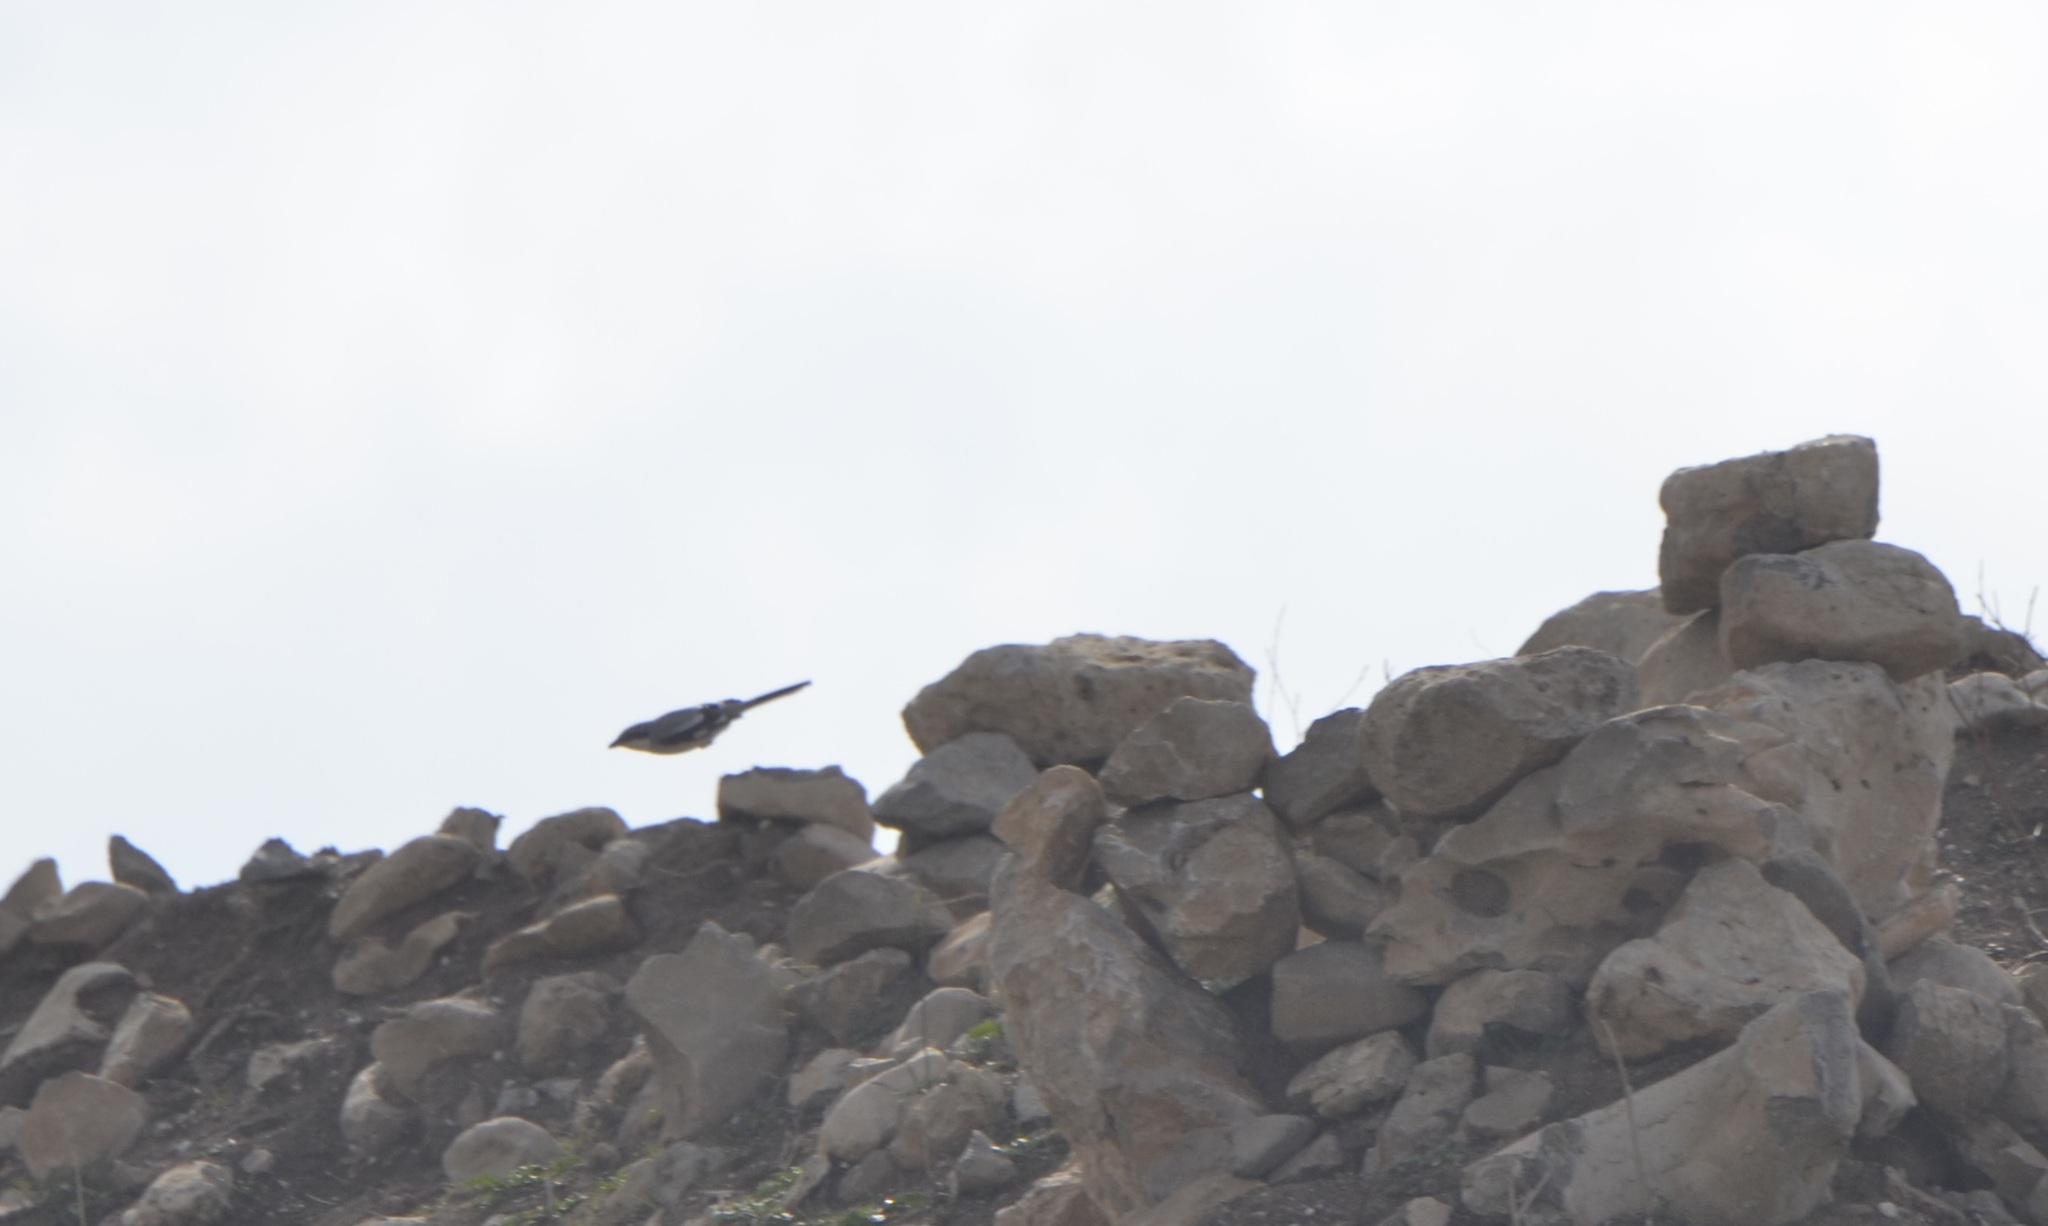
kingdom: Animalia
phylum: Chordata
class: Aves
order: Passeriformes
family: Laniidae
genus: Lanius
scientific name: Lanius excubitor
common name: Great grey shrike
